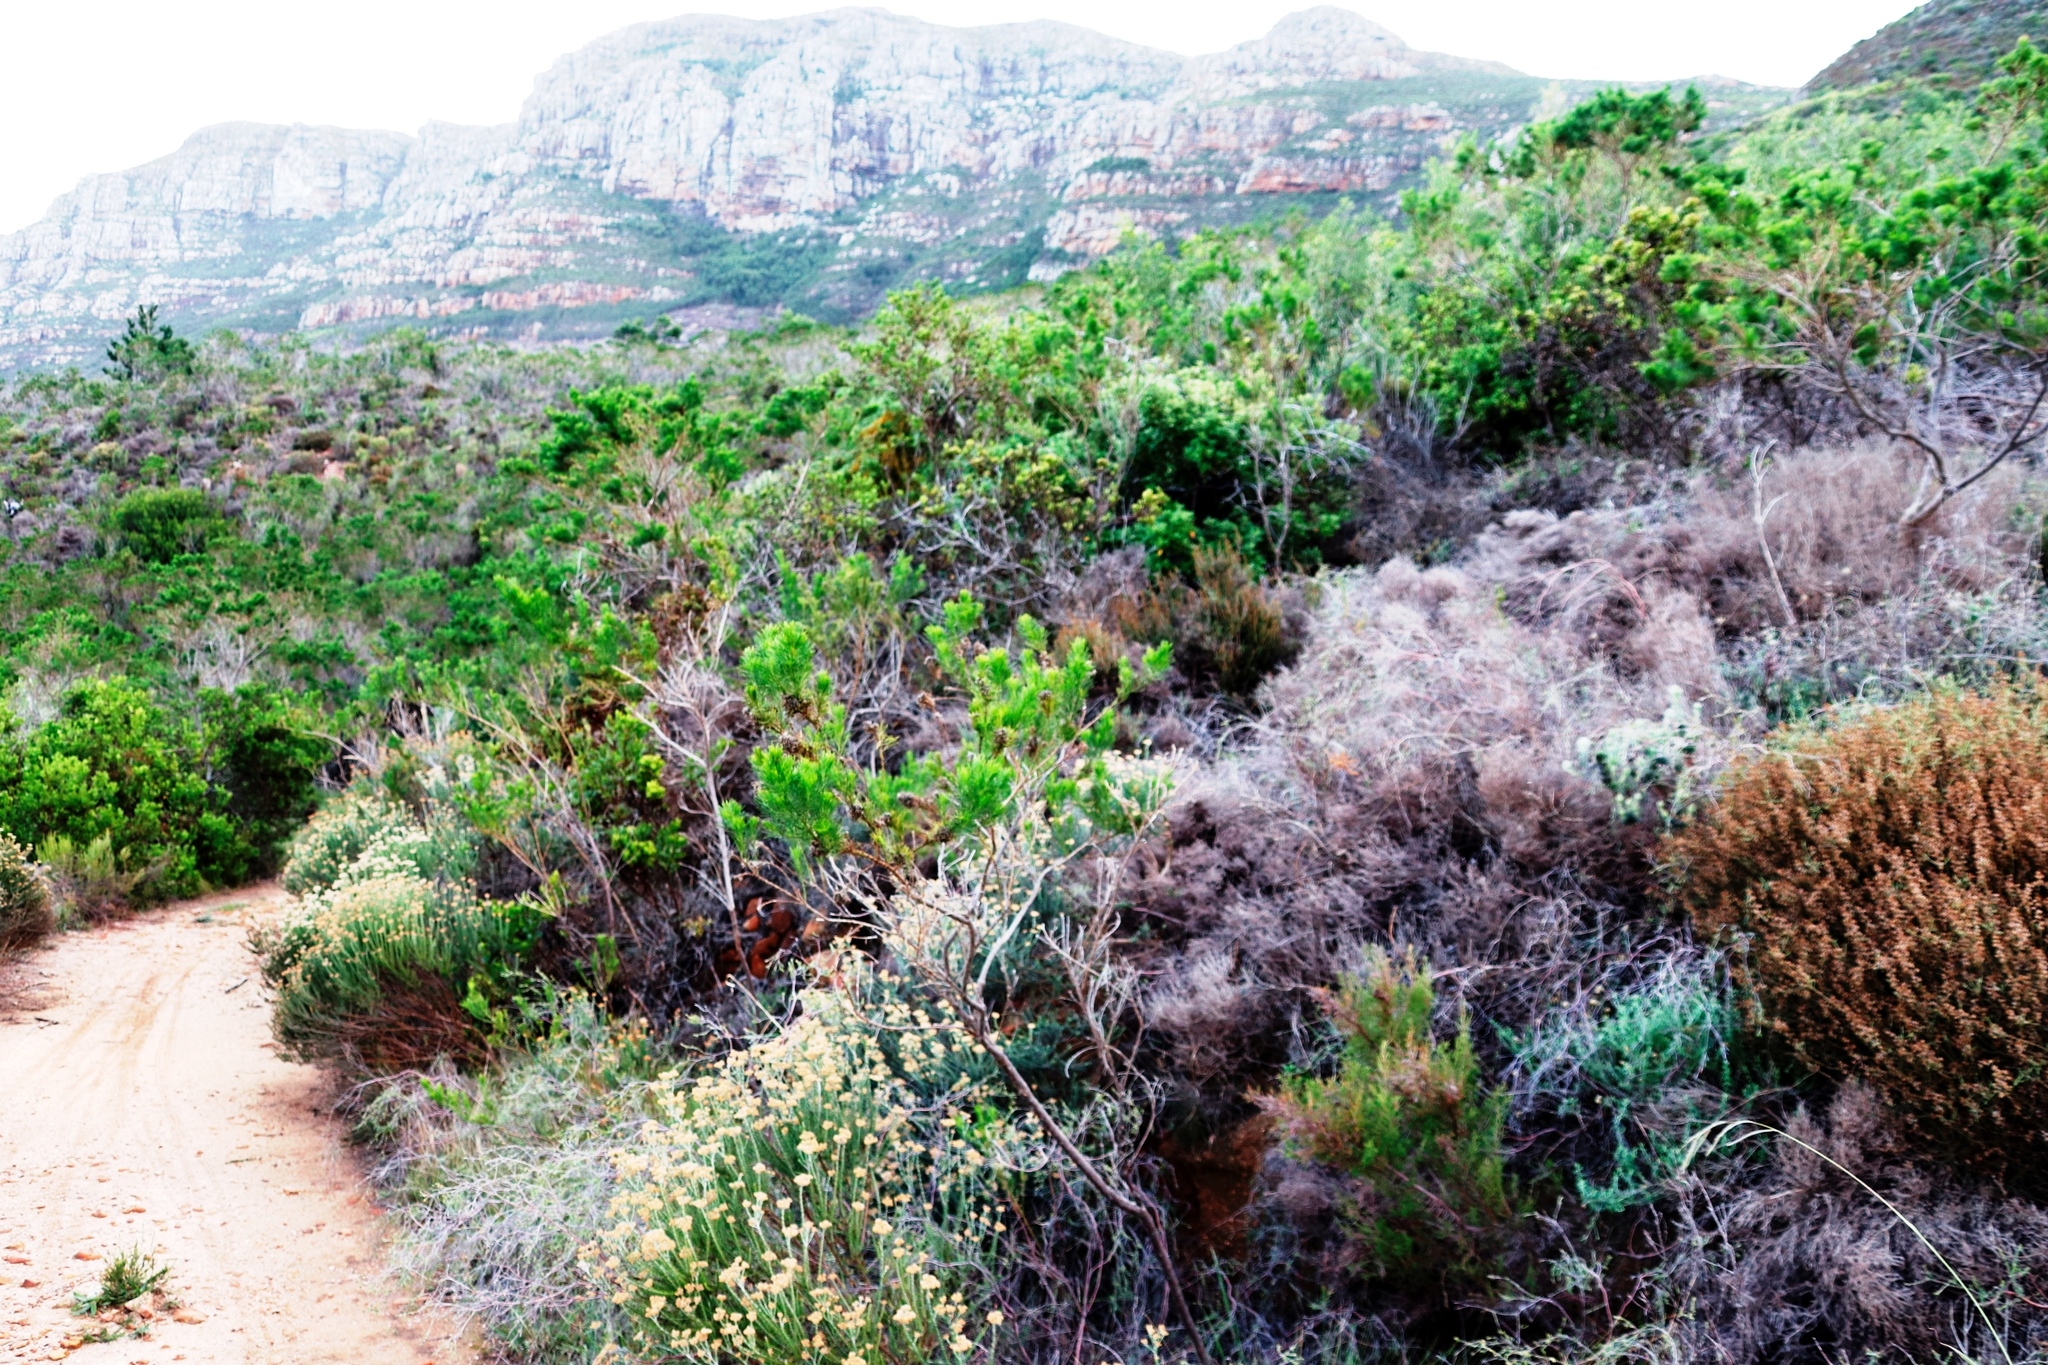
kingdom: Plantae
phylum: Tracheophyta
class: Magnoliopsida
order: Fabales
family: Fabaceae
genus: Psoralea
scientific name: Psoralea pinnata
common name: African scurfpea
